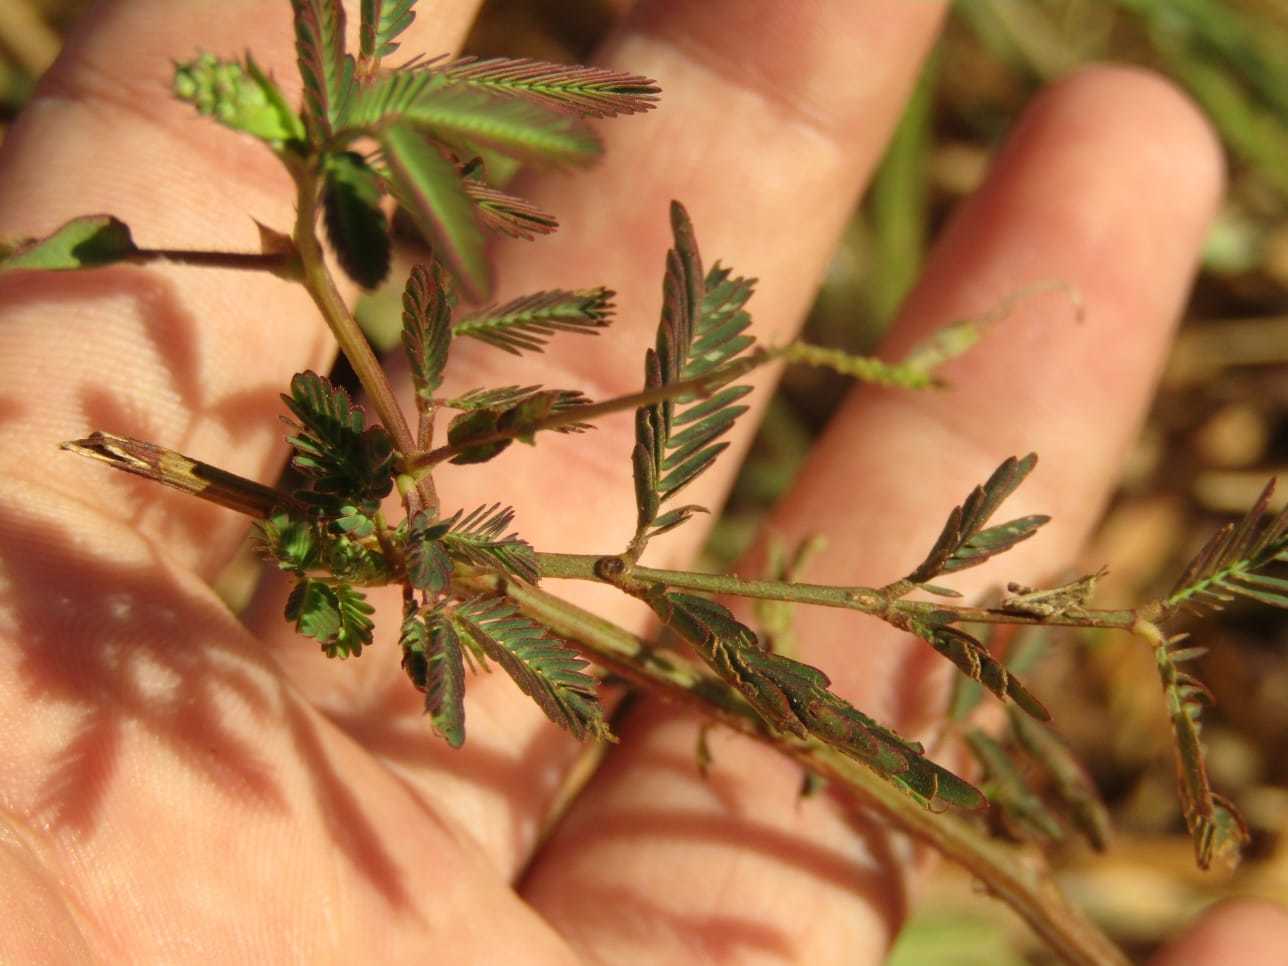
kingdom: Plantae
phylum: Tracheophyta
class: Magnoliopsida
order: Fabales
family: Fabaceae
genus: Neptunia
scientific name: Neptunia plena
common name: Dead and awake
